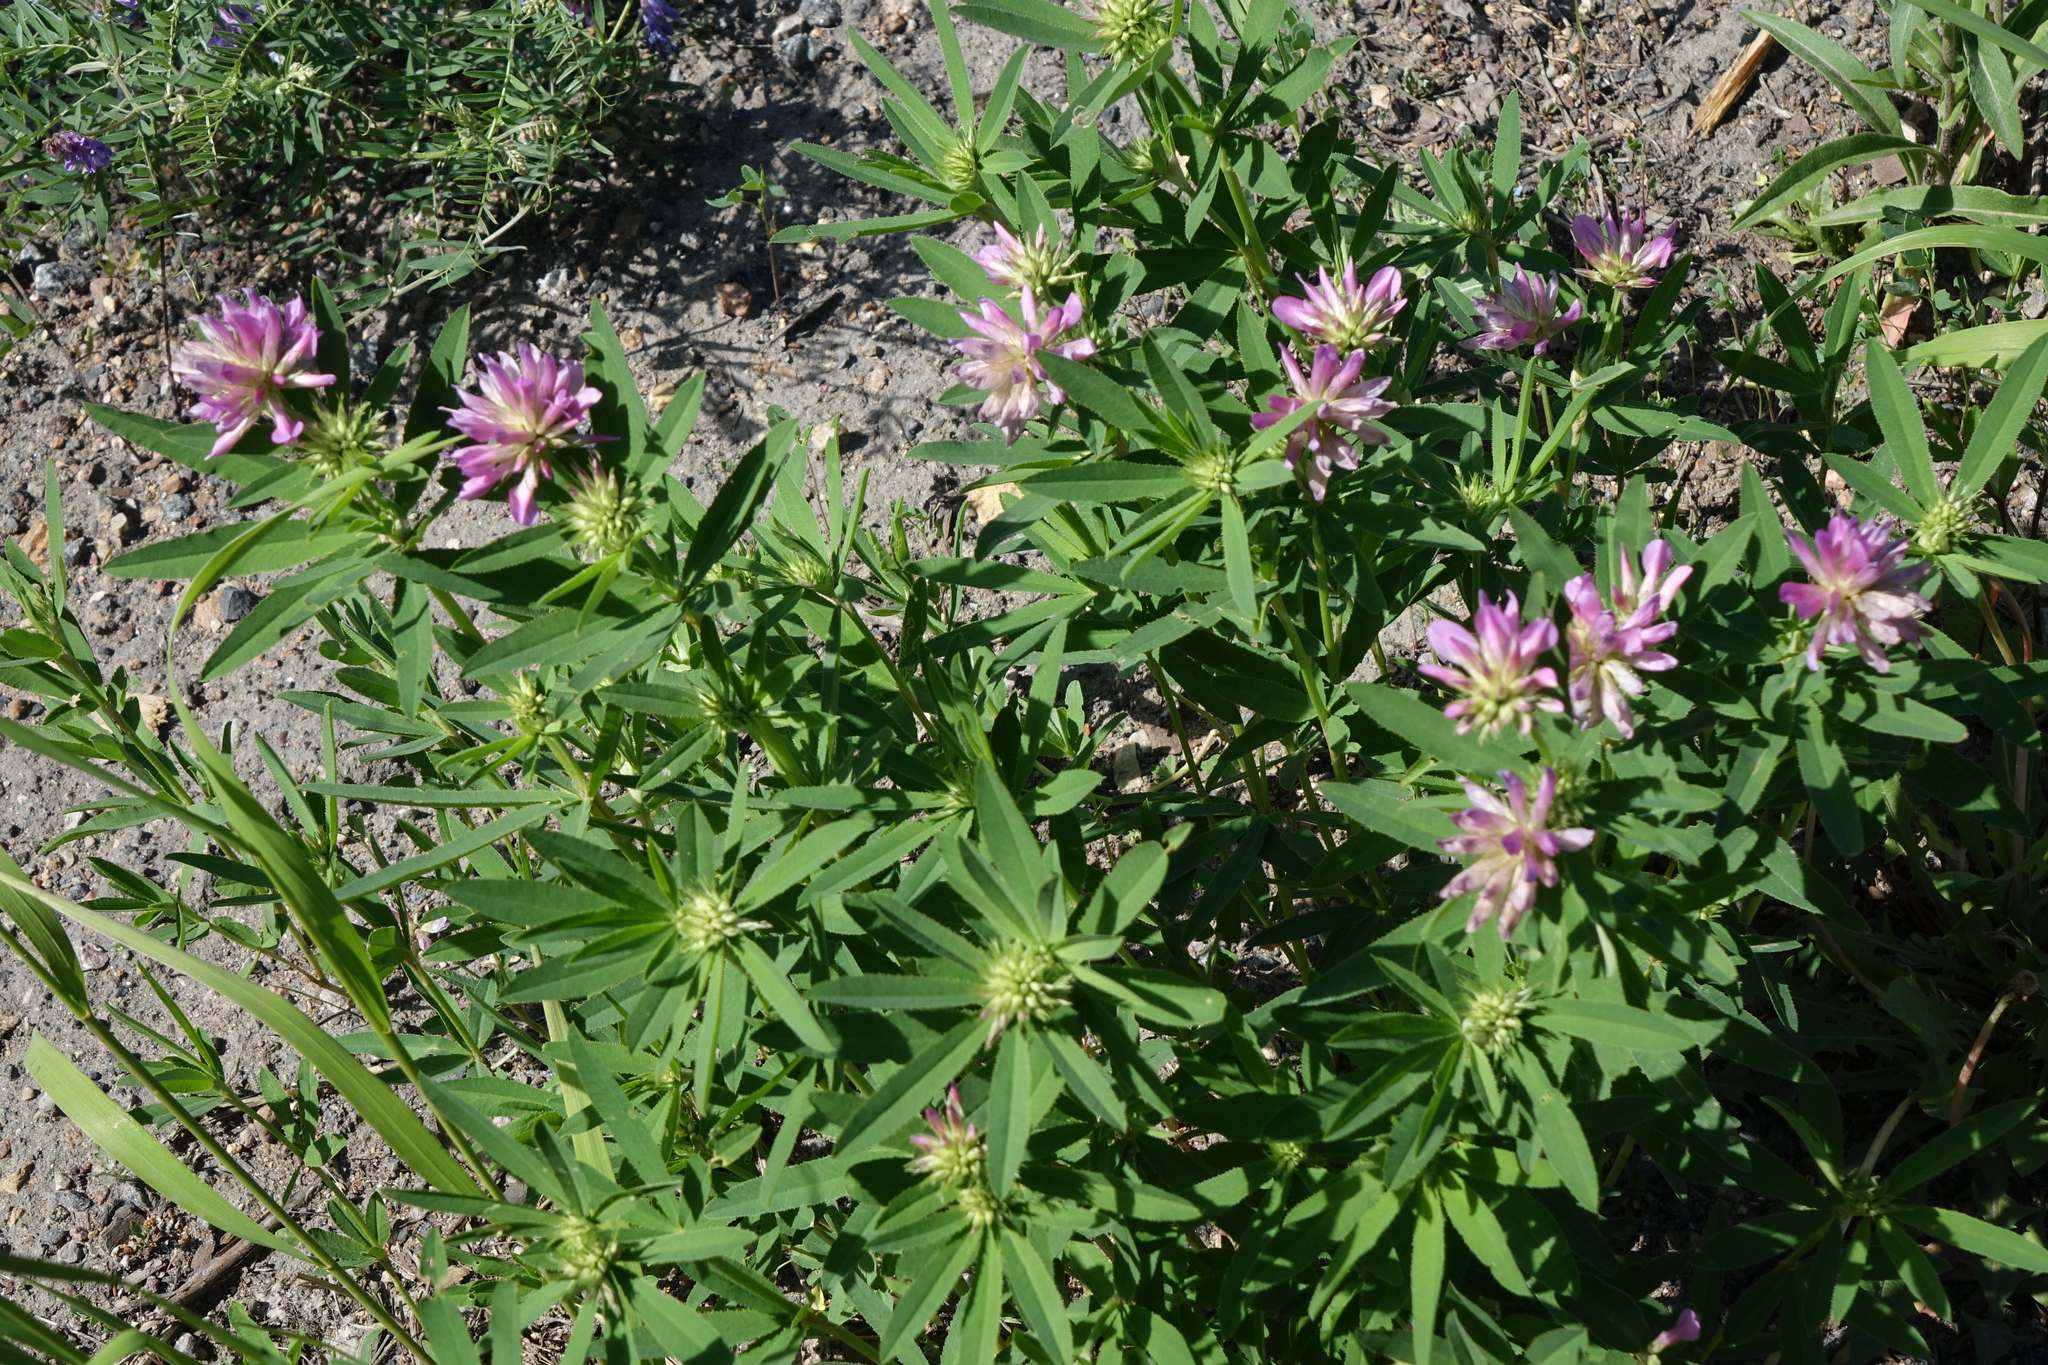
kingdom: Plantae
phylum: Tracheophyta
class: Magnoliopsida
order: Fabales
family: Fabaceae
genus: Trifolium
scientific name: Trifolium lupinaster
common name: Lupine clover
